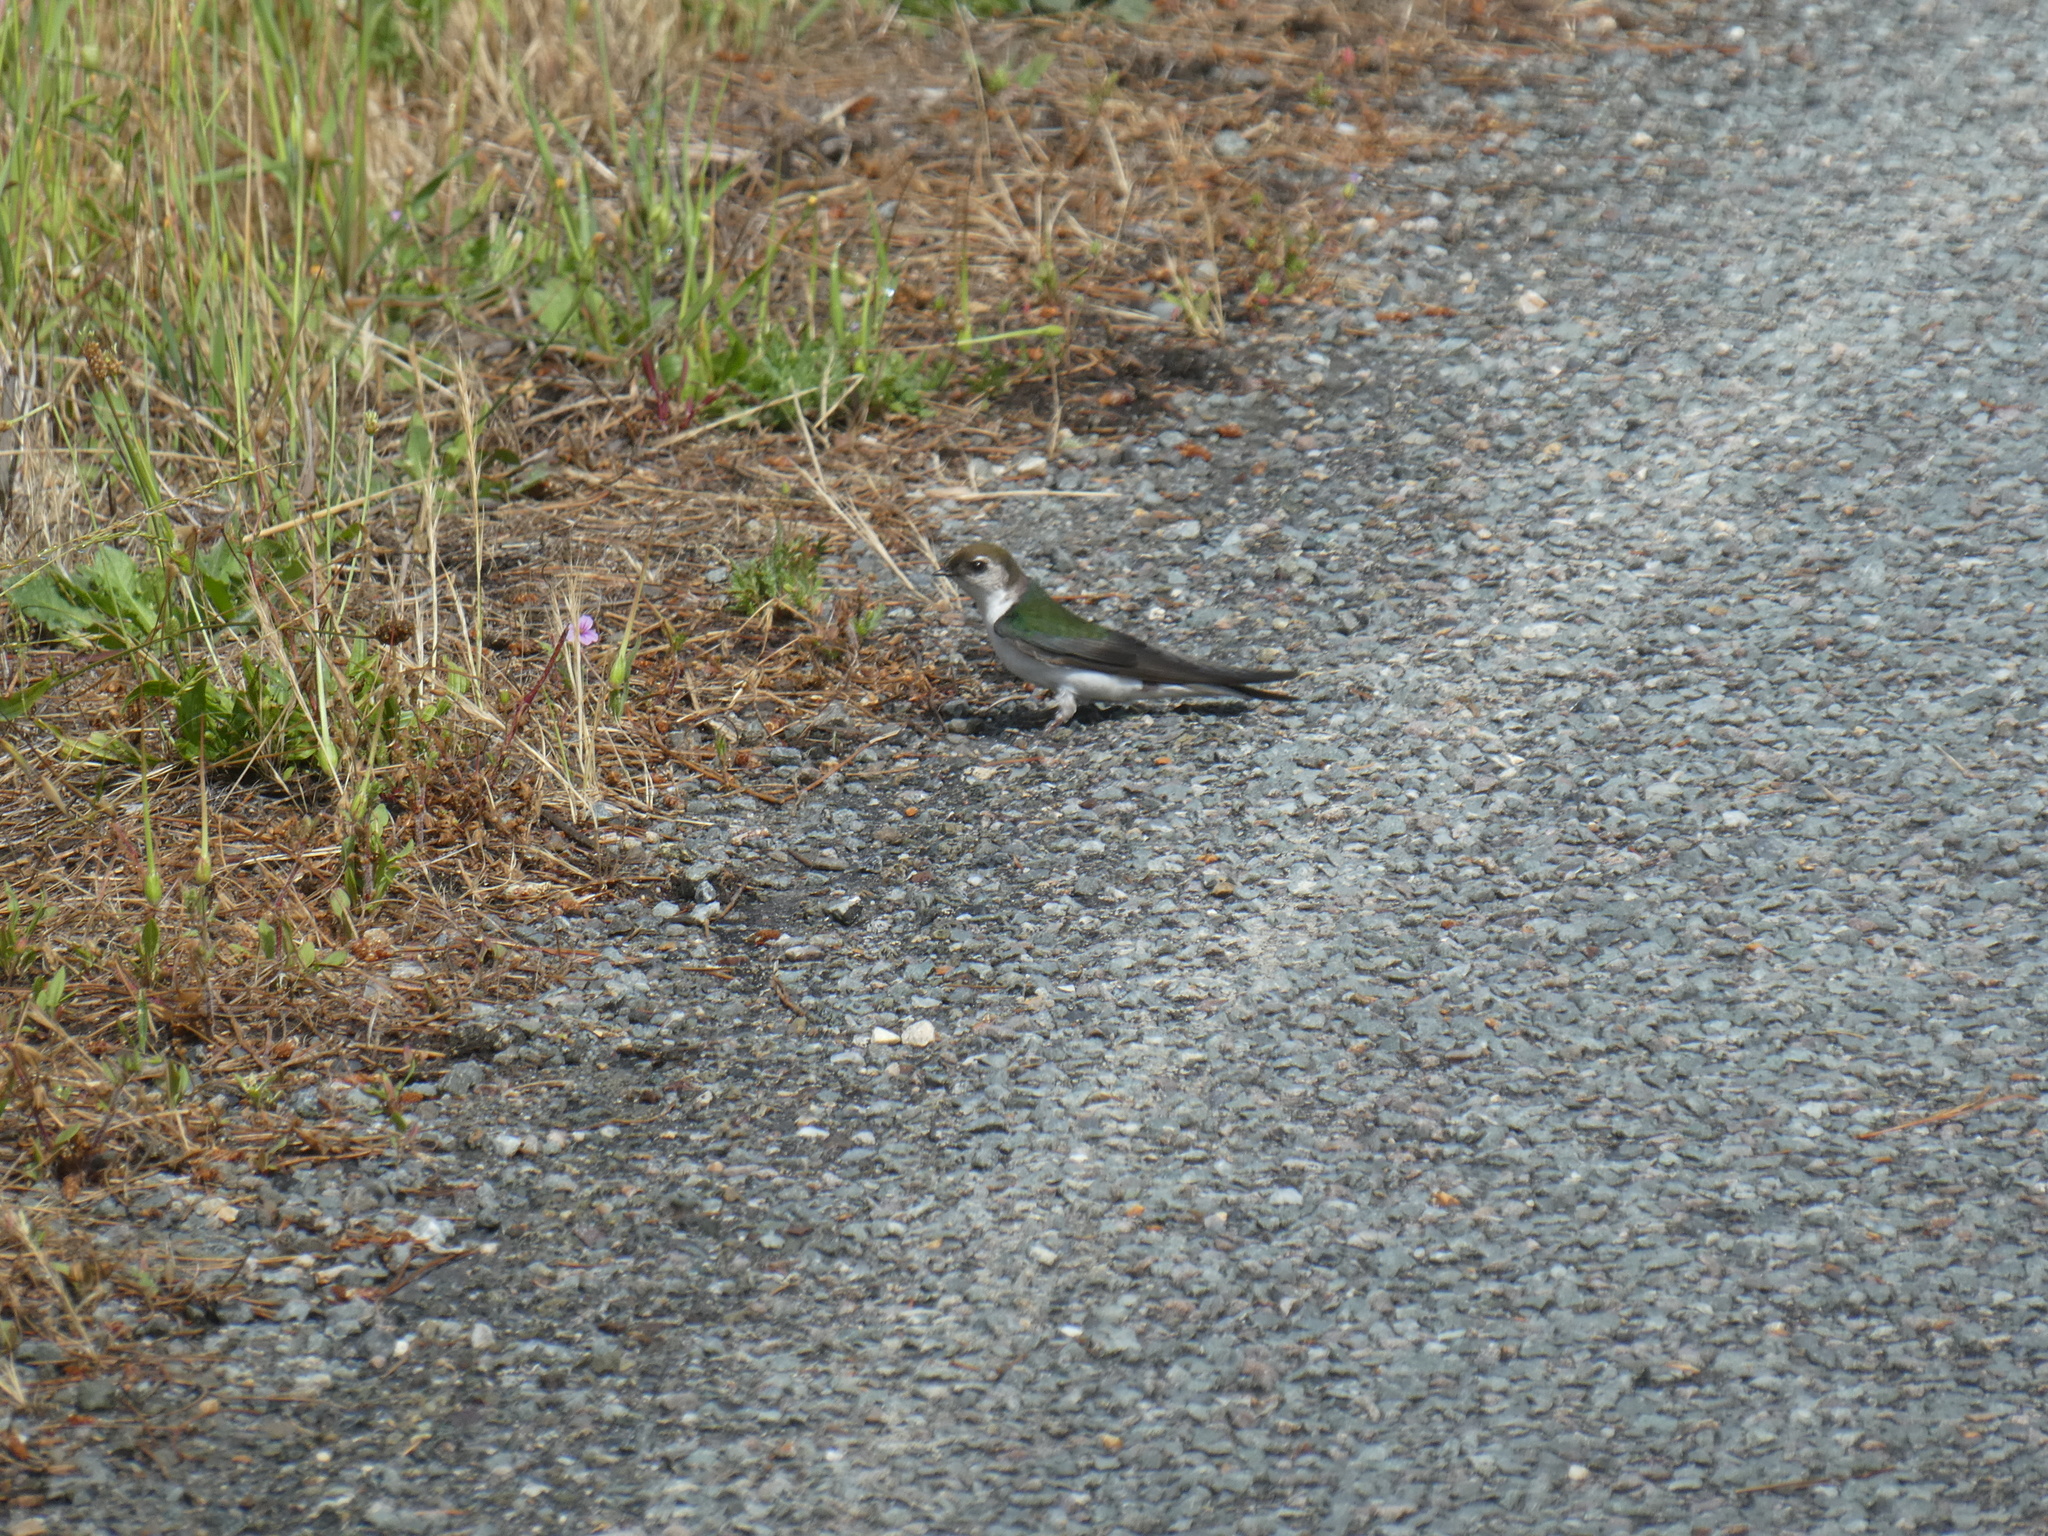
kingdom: Animalia
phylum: Chordata
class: Aves
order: Passeriformes
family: Hirundinidae
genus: Tachycineta
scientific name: Tachycineta thalassina
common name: Violet-green swallow
